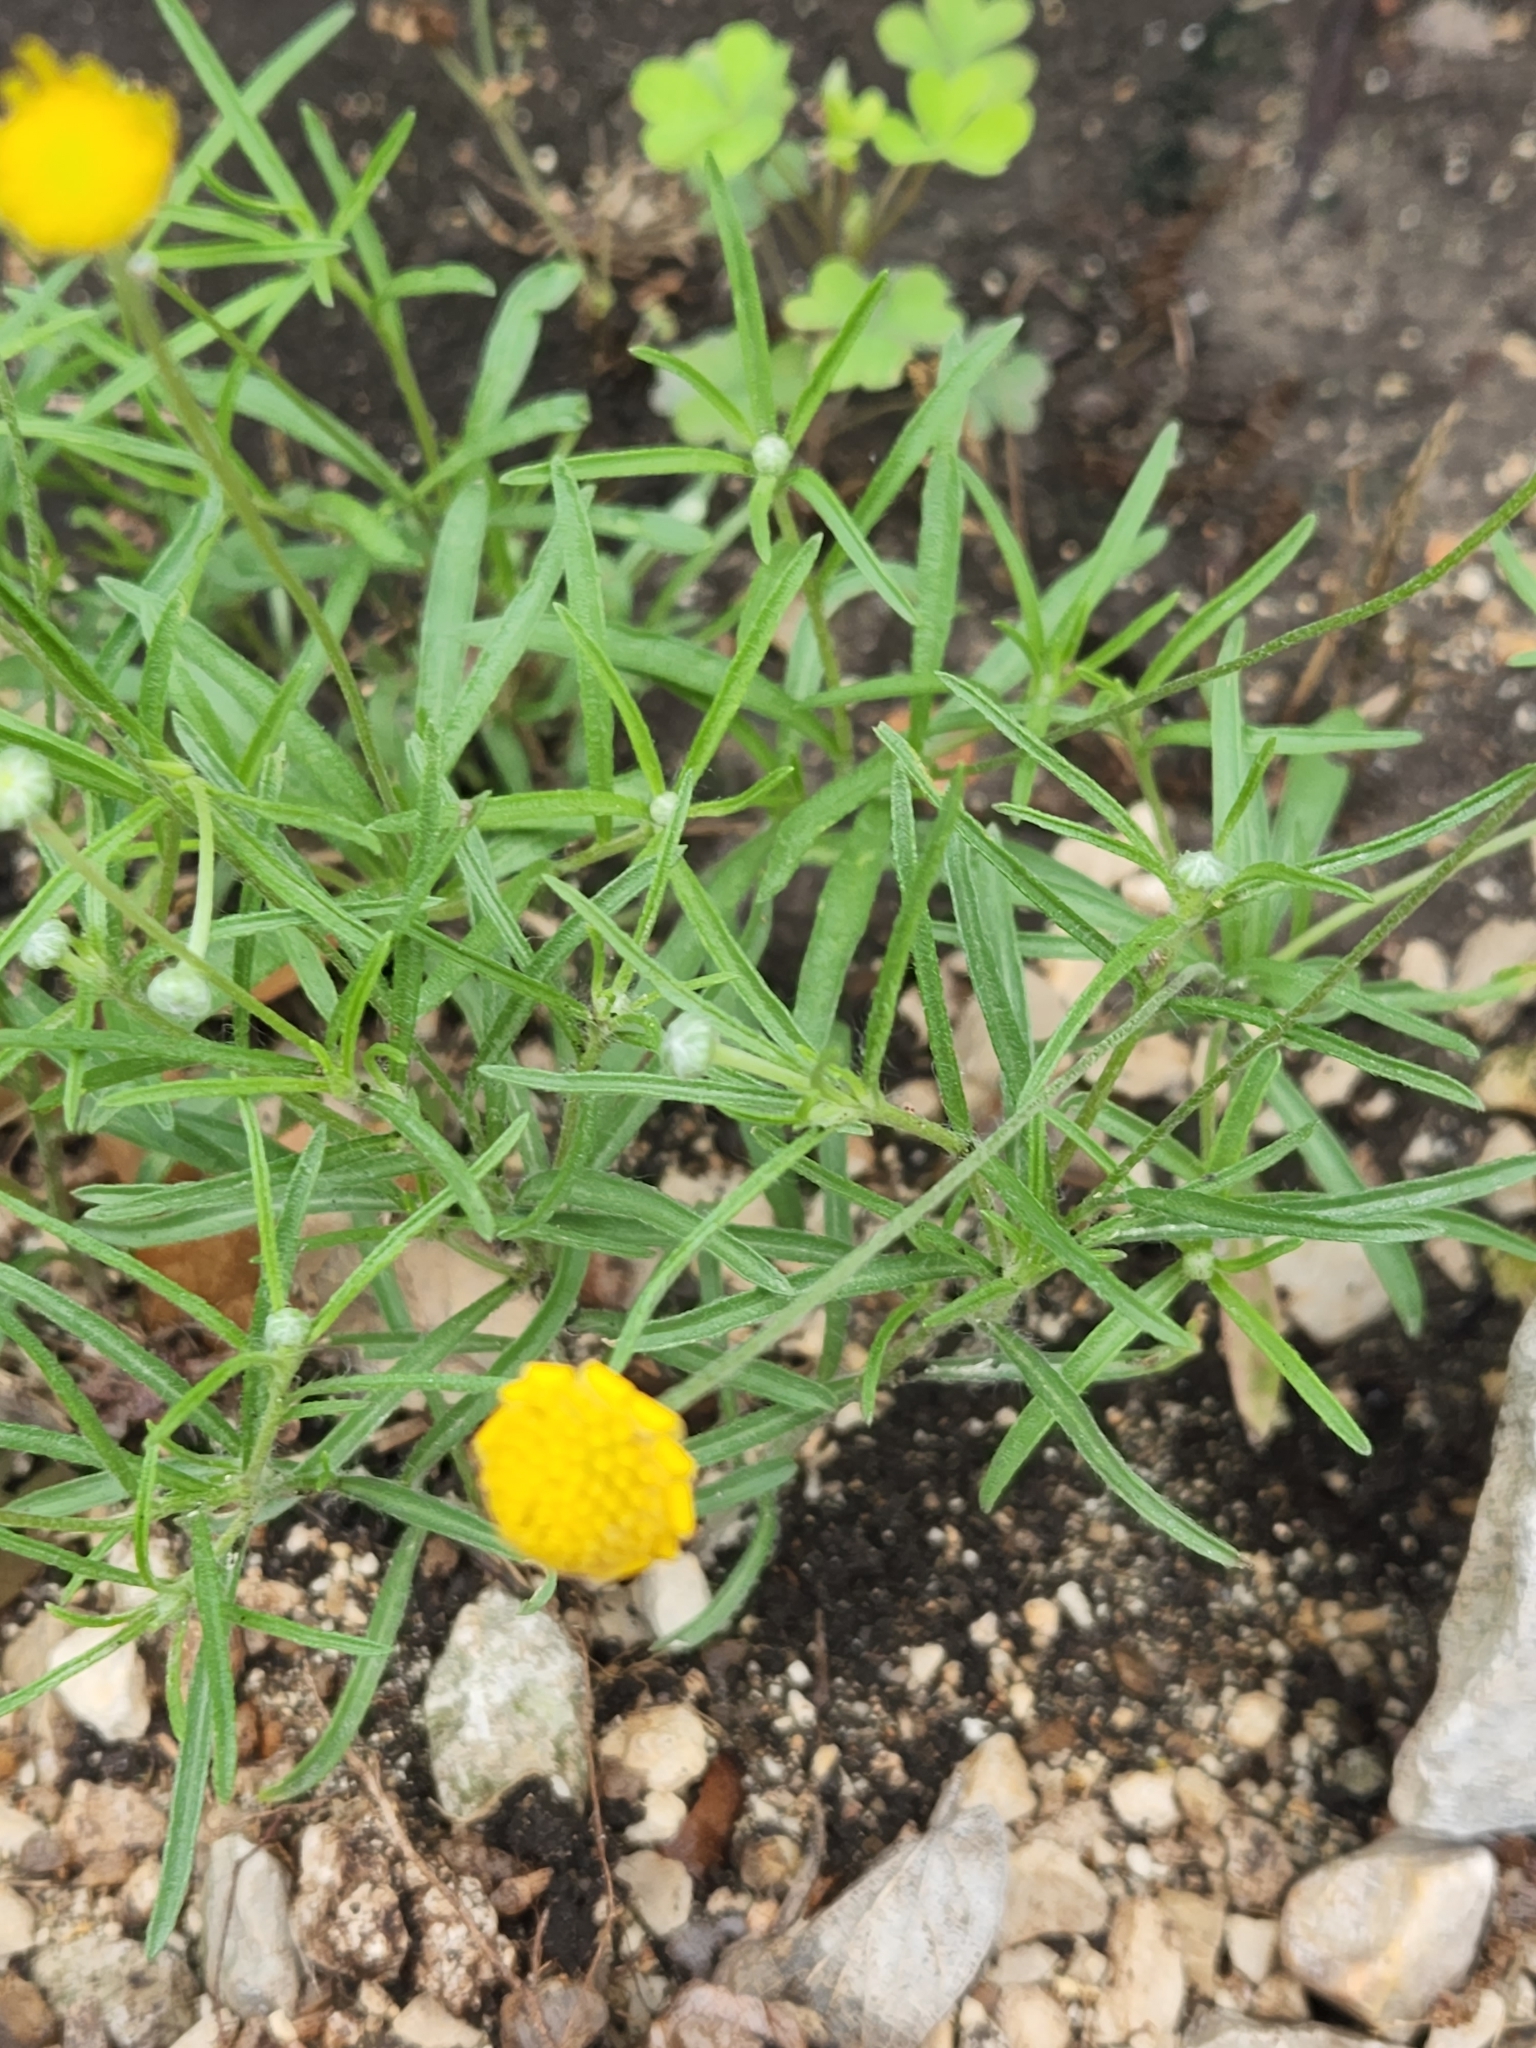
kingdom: Plantae
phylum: Tracheophyta
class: Magnoliopsida
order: Asterales
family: Asteraceae
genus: Tetraneuris
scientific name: Tetraneuris linearifolia
